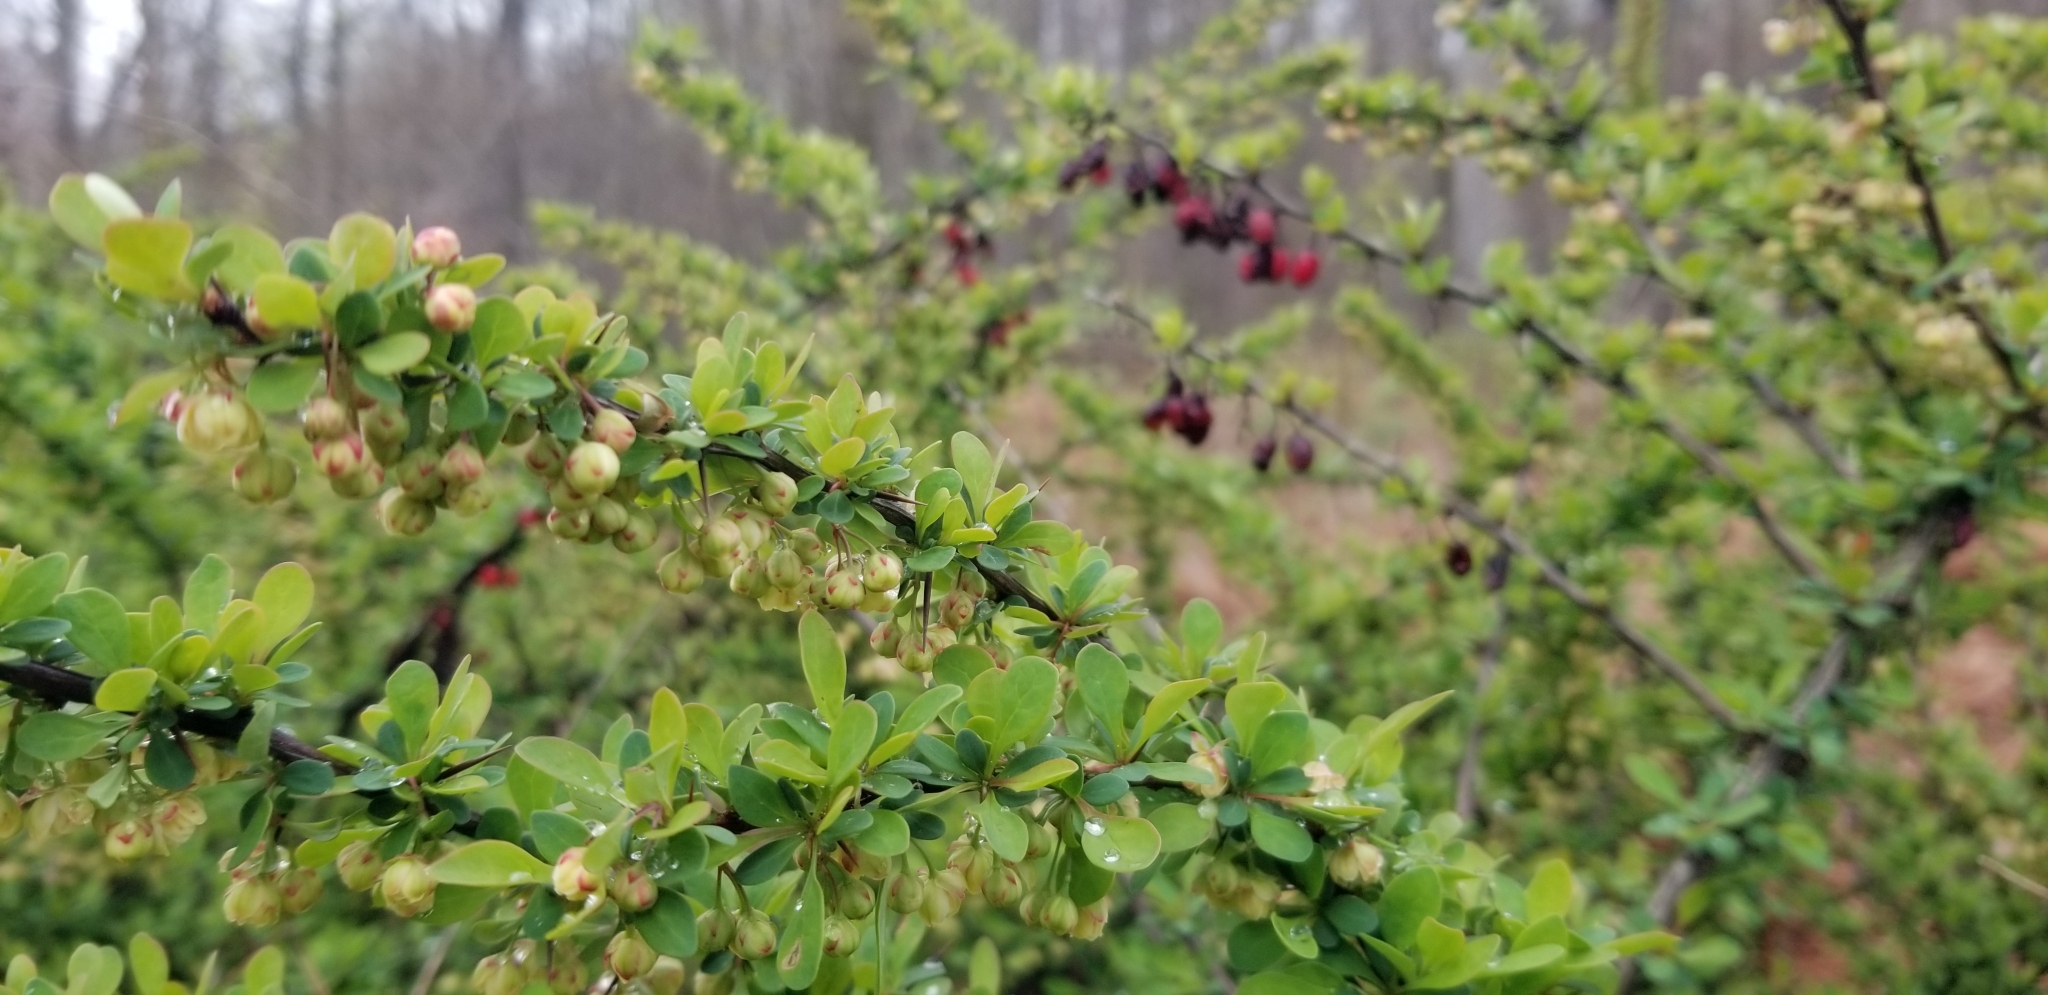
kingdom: Plantae
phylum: Tracheophyta
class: Magnoliopsida
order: Ranunculales
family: Berberidaceae
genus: Berberis
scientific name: Berberis thunbergii
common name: Japanese barberry
